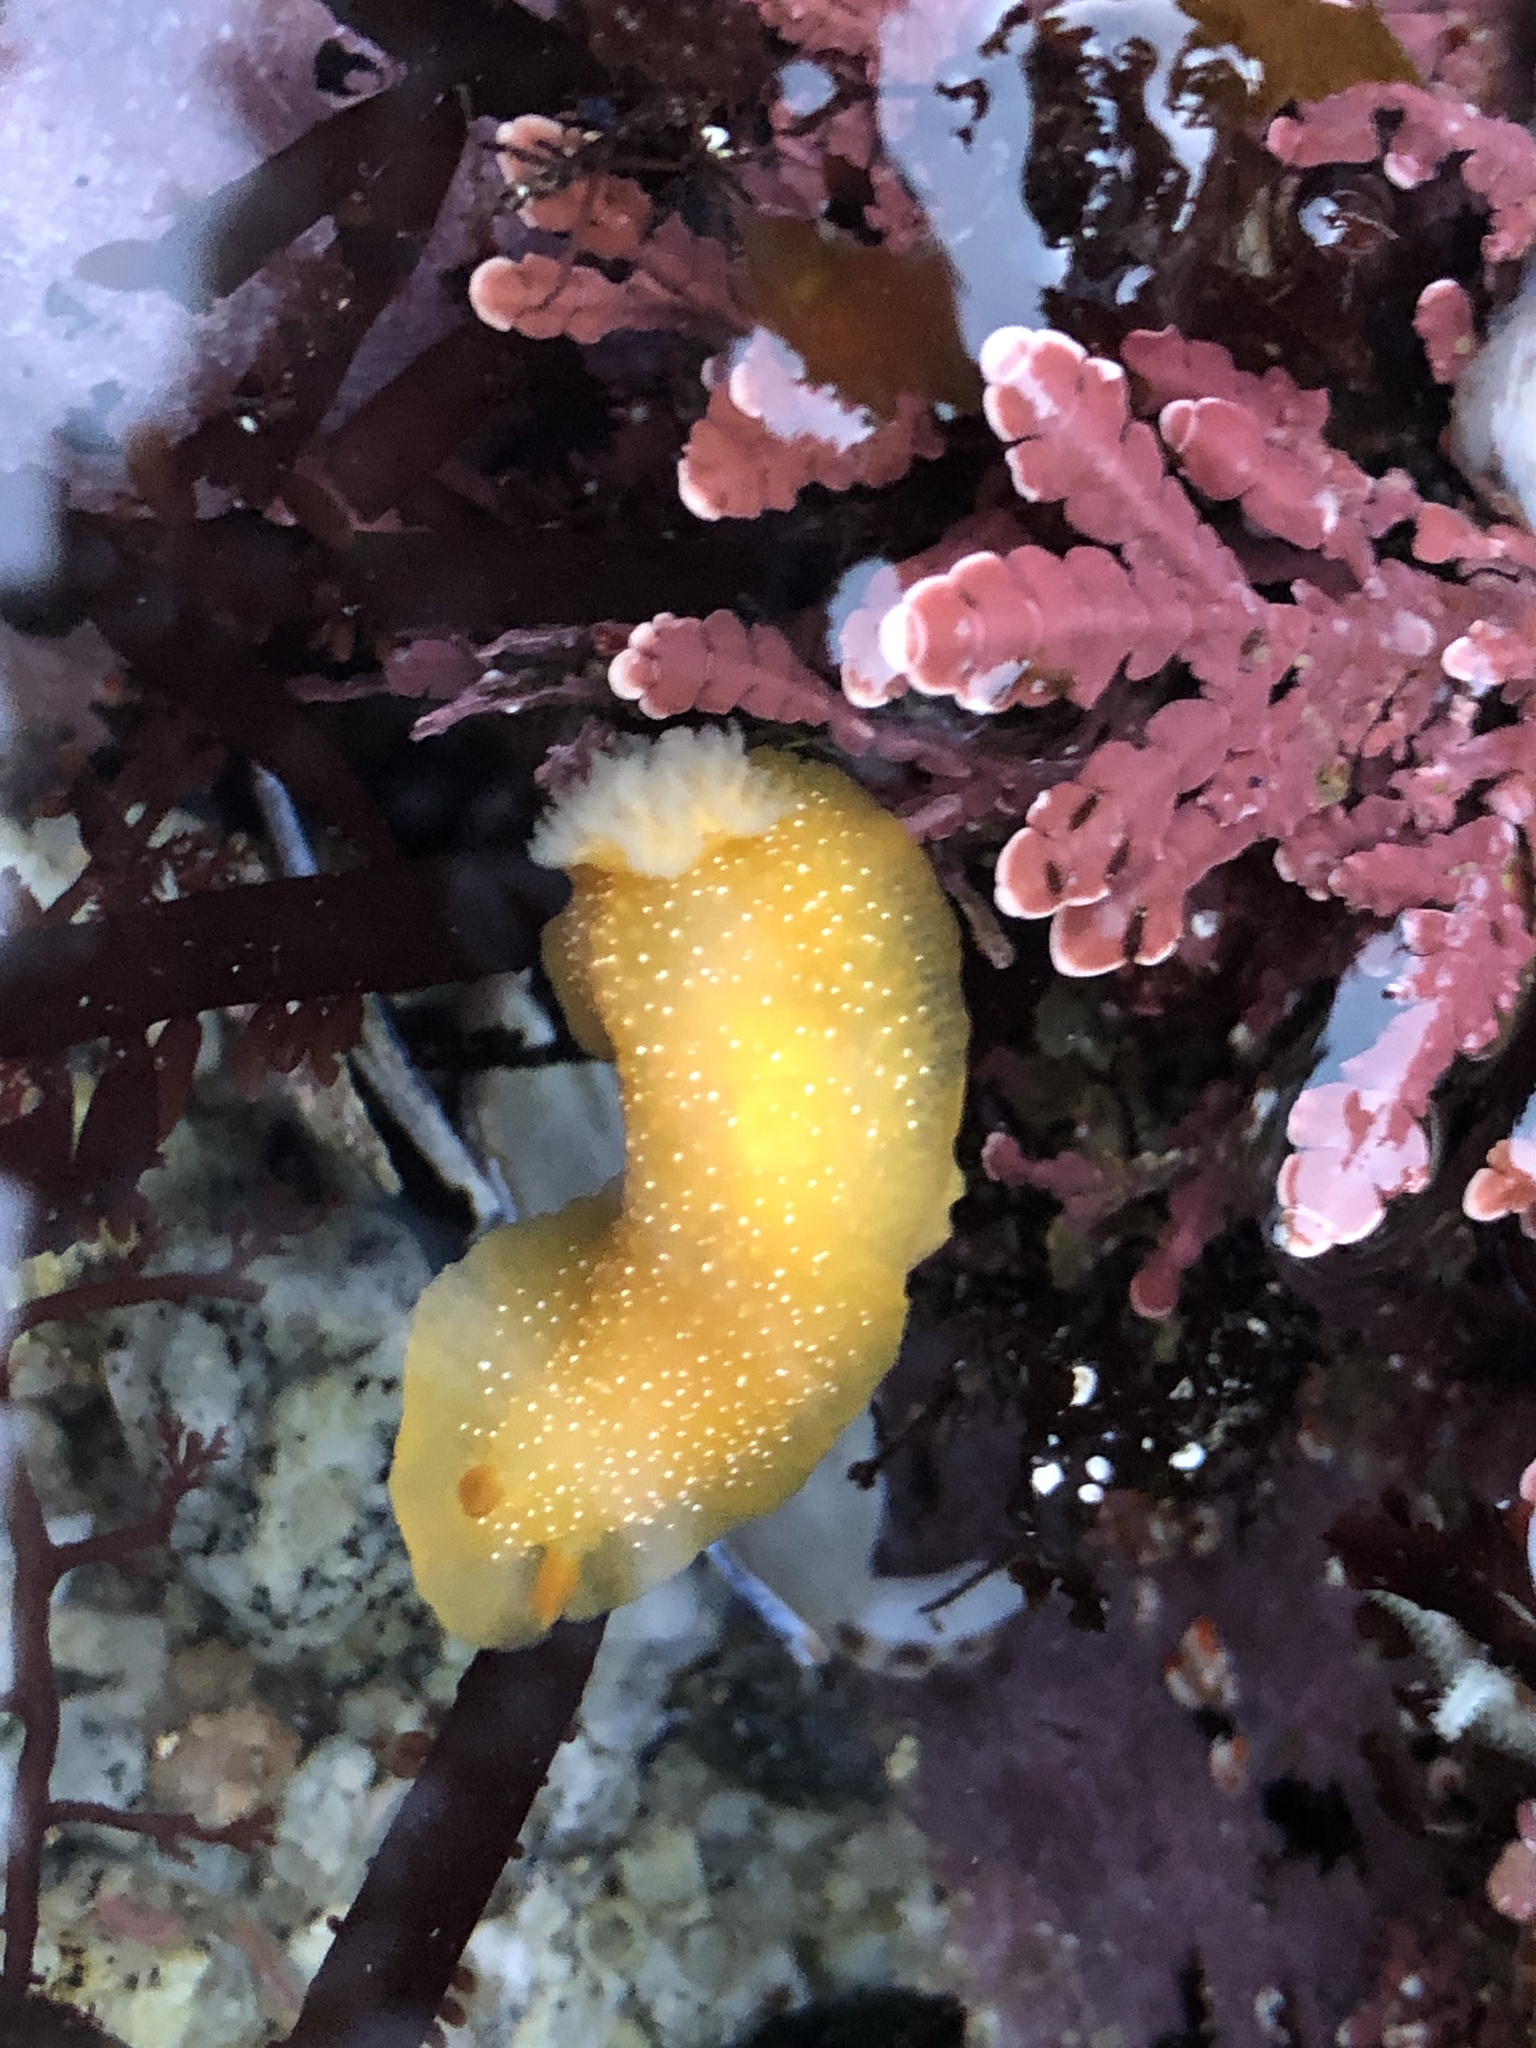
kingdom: Animalia
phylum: Mollusca
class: Gastropoda
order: Nudibranchia
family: Dendrodorididae
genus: Doriopsilla
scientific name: Doriopsilla fulva
